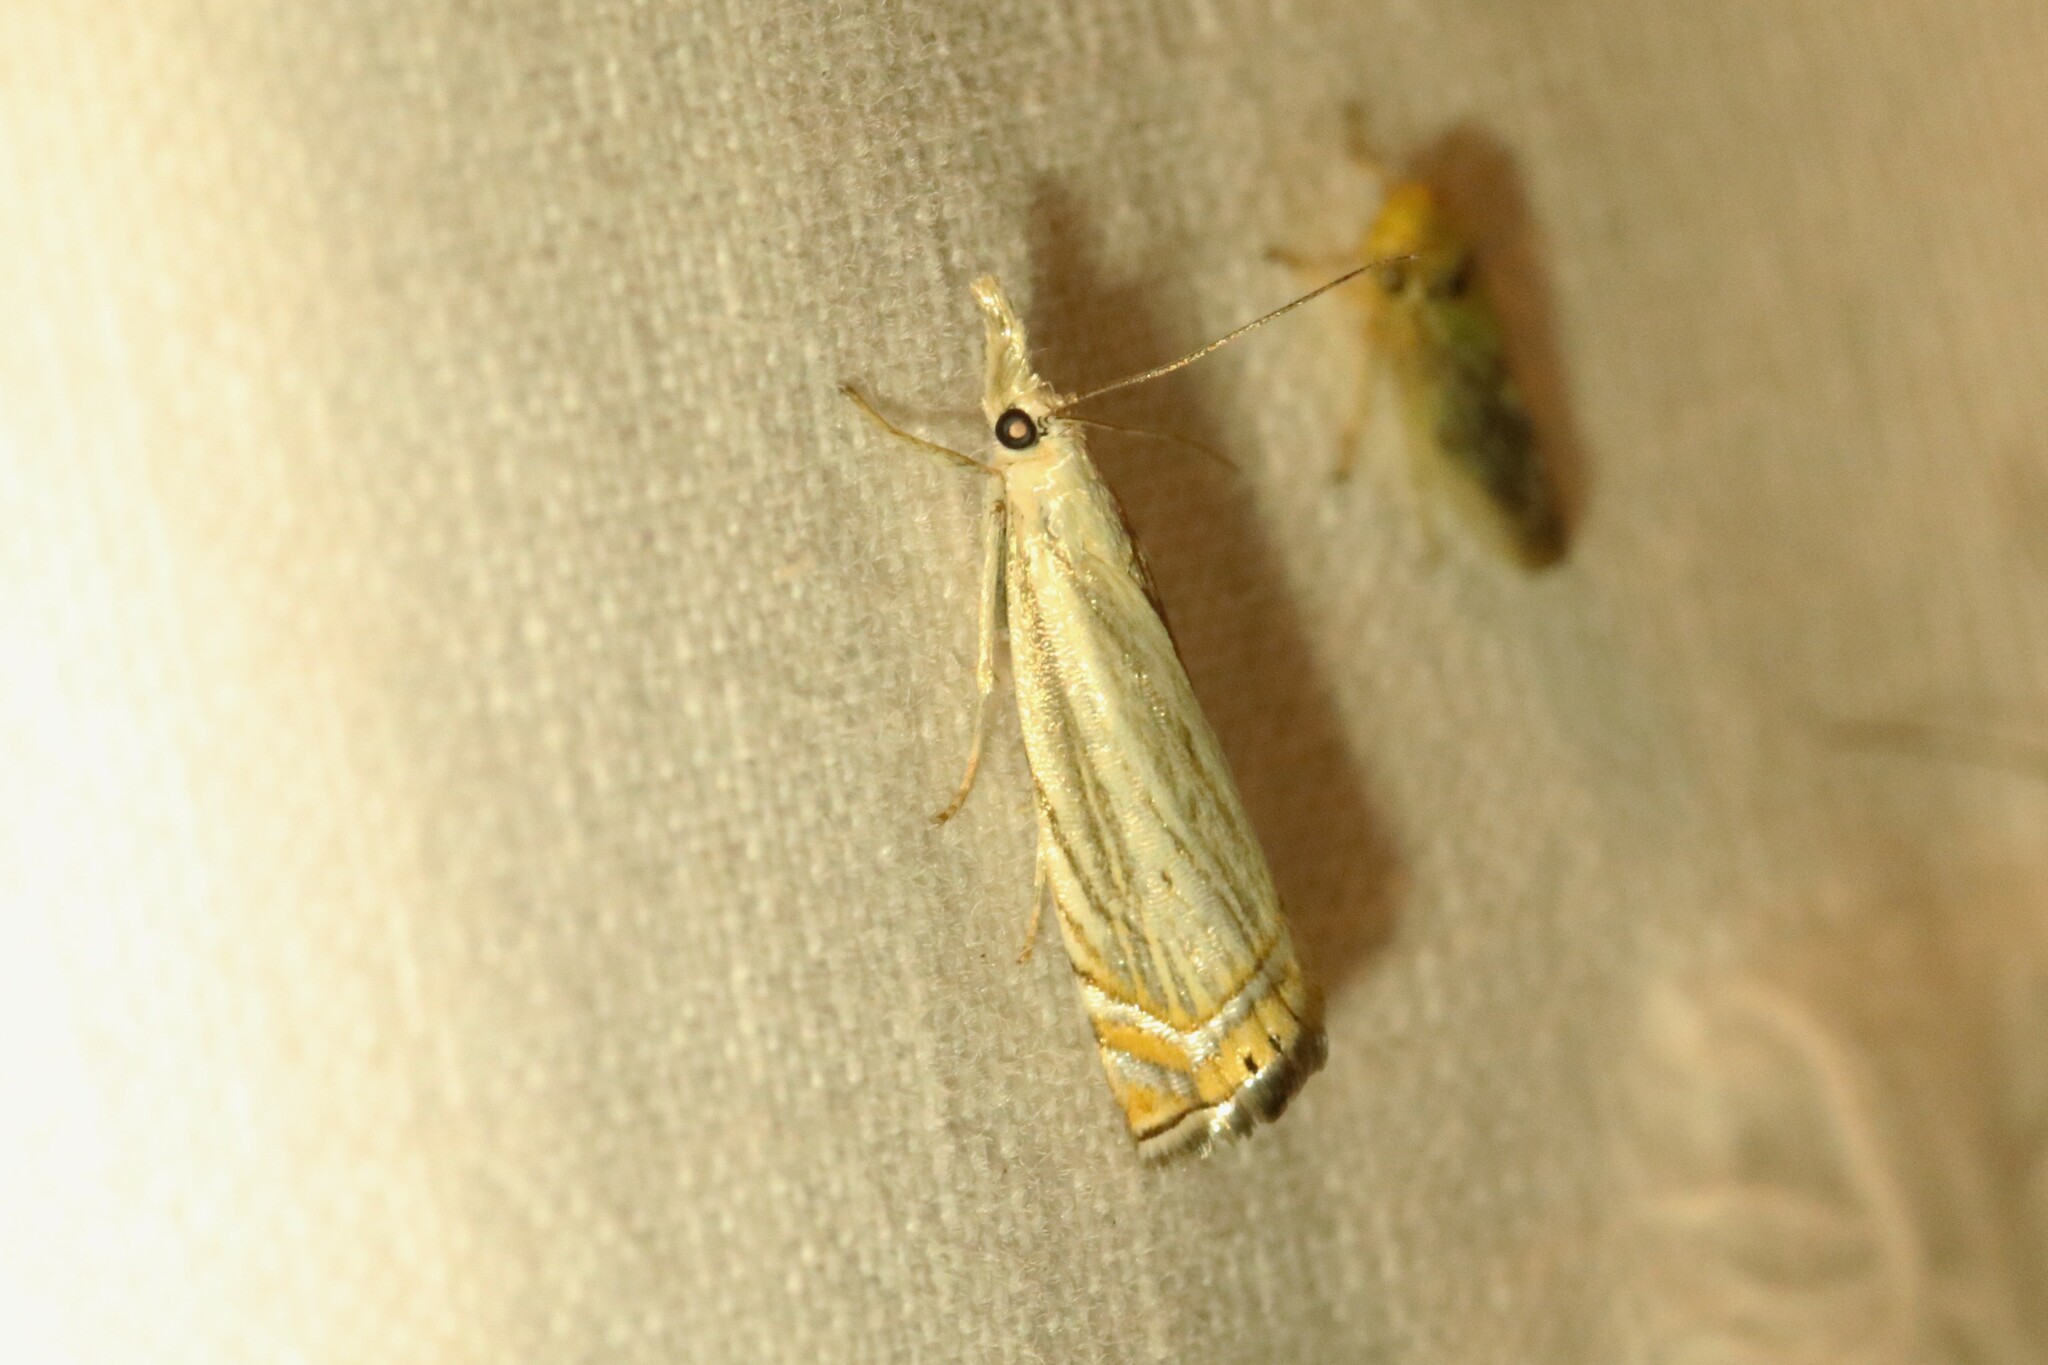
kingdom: Animalia
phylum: Arthropoda
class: Insecta
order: Lepidoptera
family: Crambidae
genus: Chrysoteuchia
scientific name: Chrysoteuchia topiarius
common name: Topiary grass-veneer
